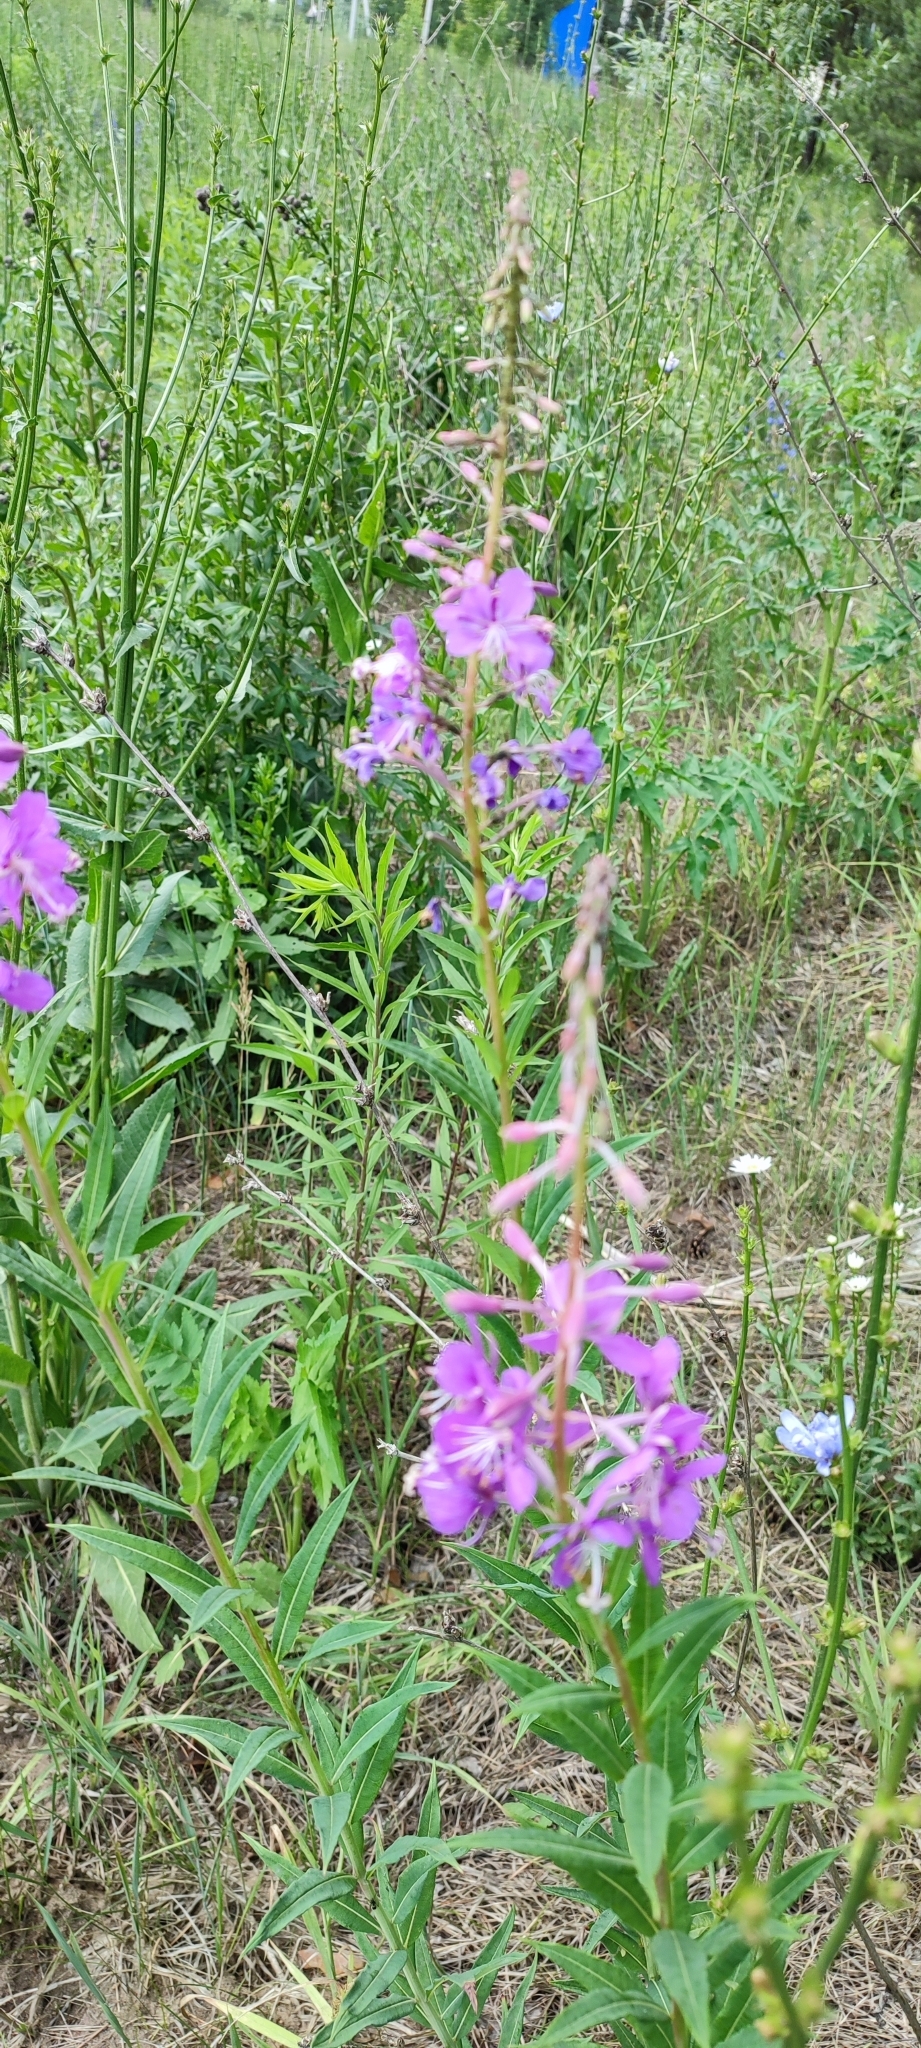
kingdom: Plantae
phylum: Tracheophyta
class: Magnoliopsida
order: Myrtales
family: Onagraceae
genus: Chamaenerion
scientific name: Chamaenerion angustifolium
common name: Fireweed
